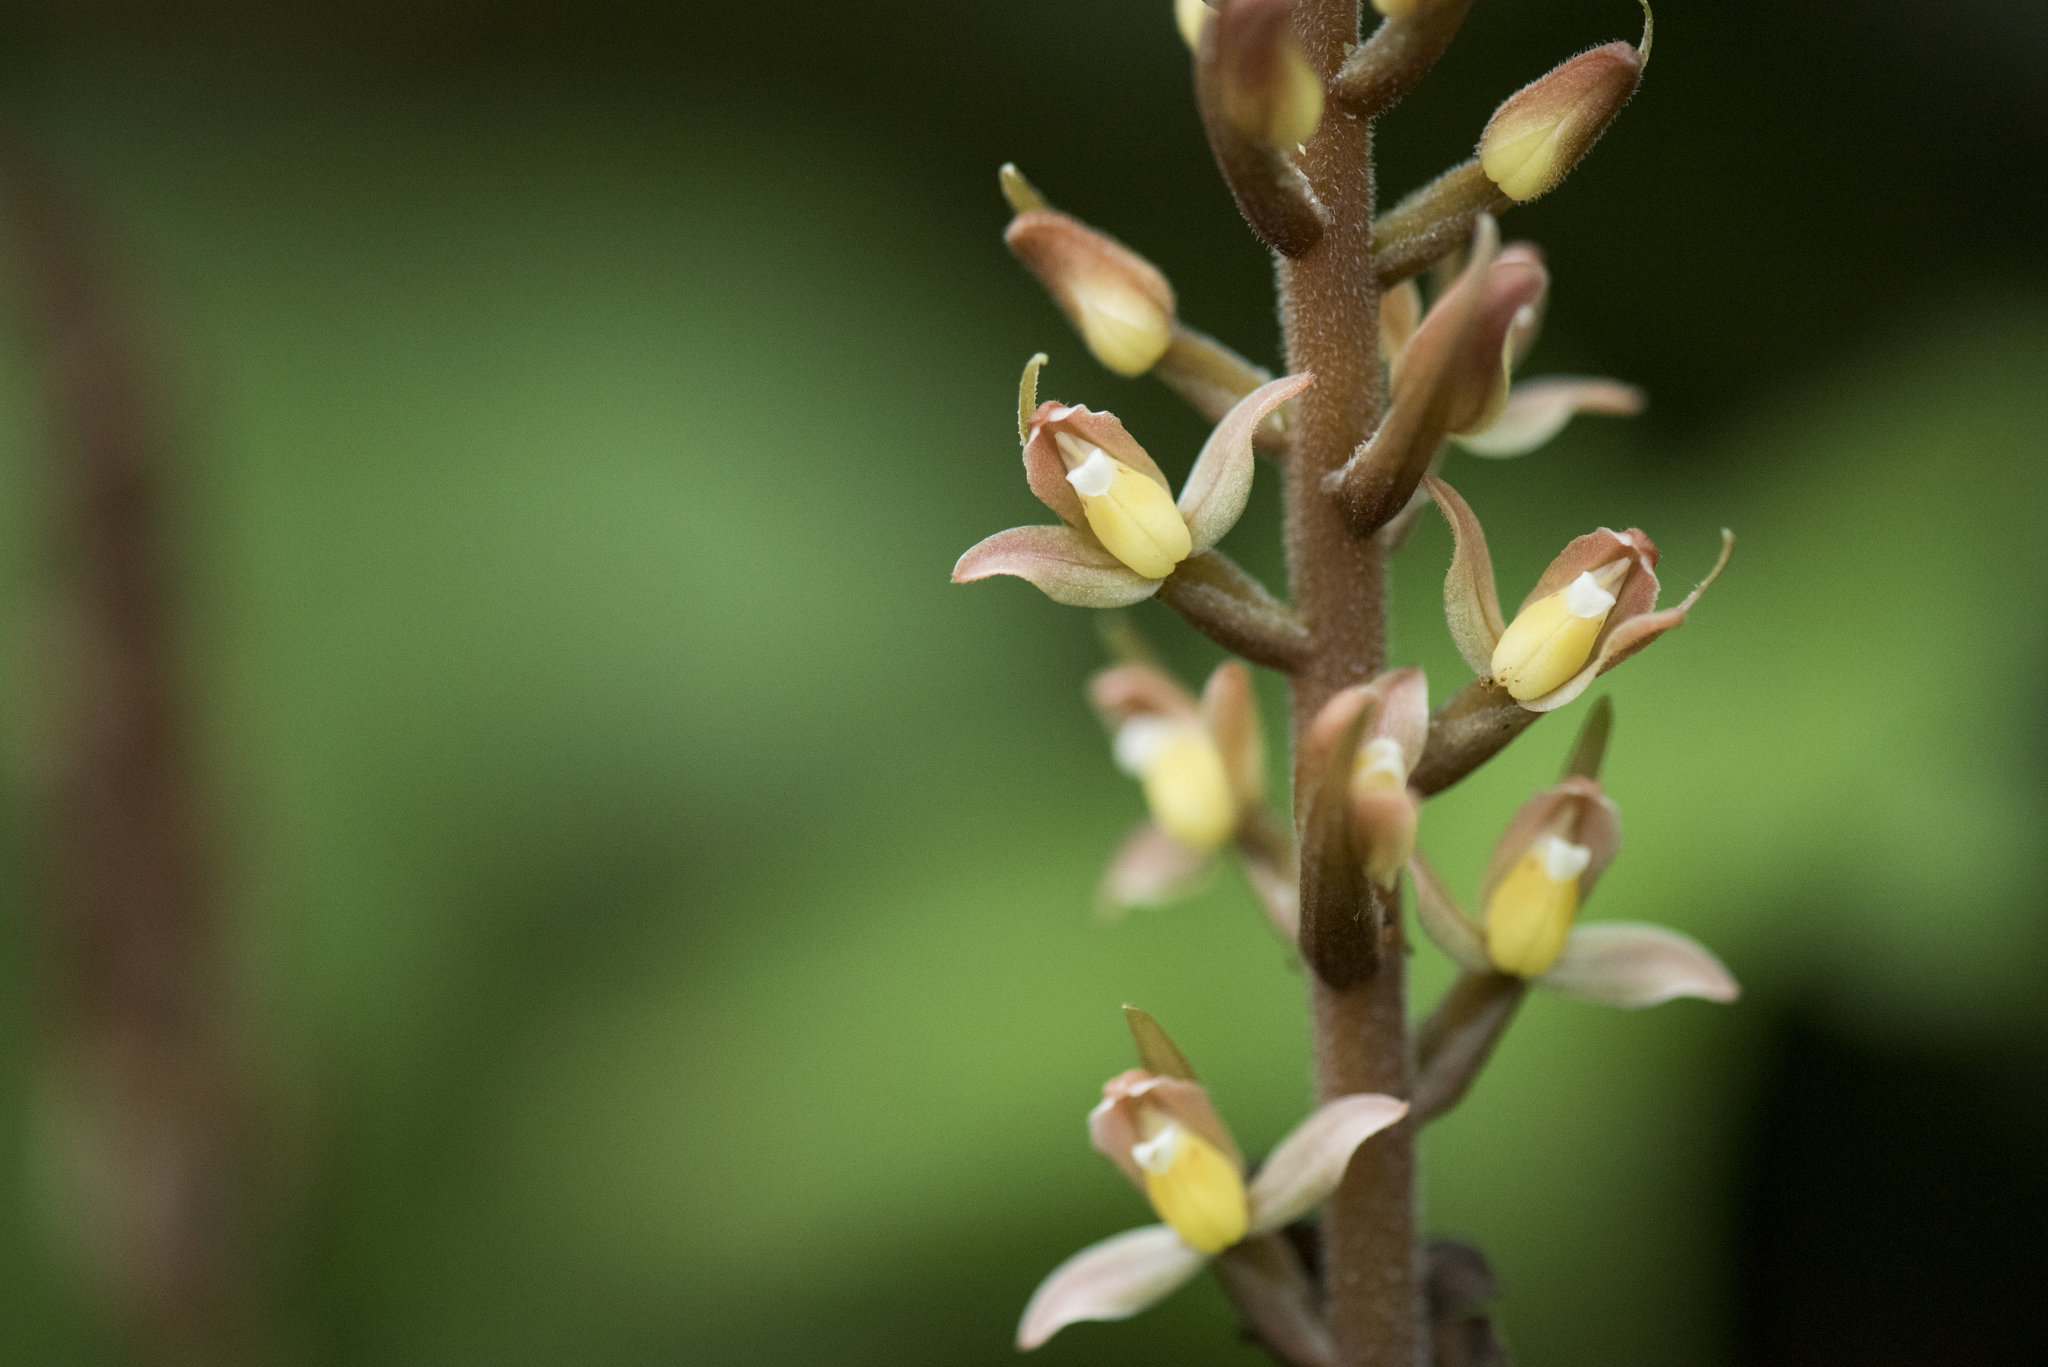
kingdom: Plantae
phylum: Tracheophyta
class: Liliopsida
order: Asparagales
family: Orchidaceae
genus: Goodyera
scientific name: Goodyera rubicunda
